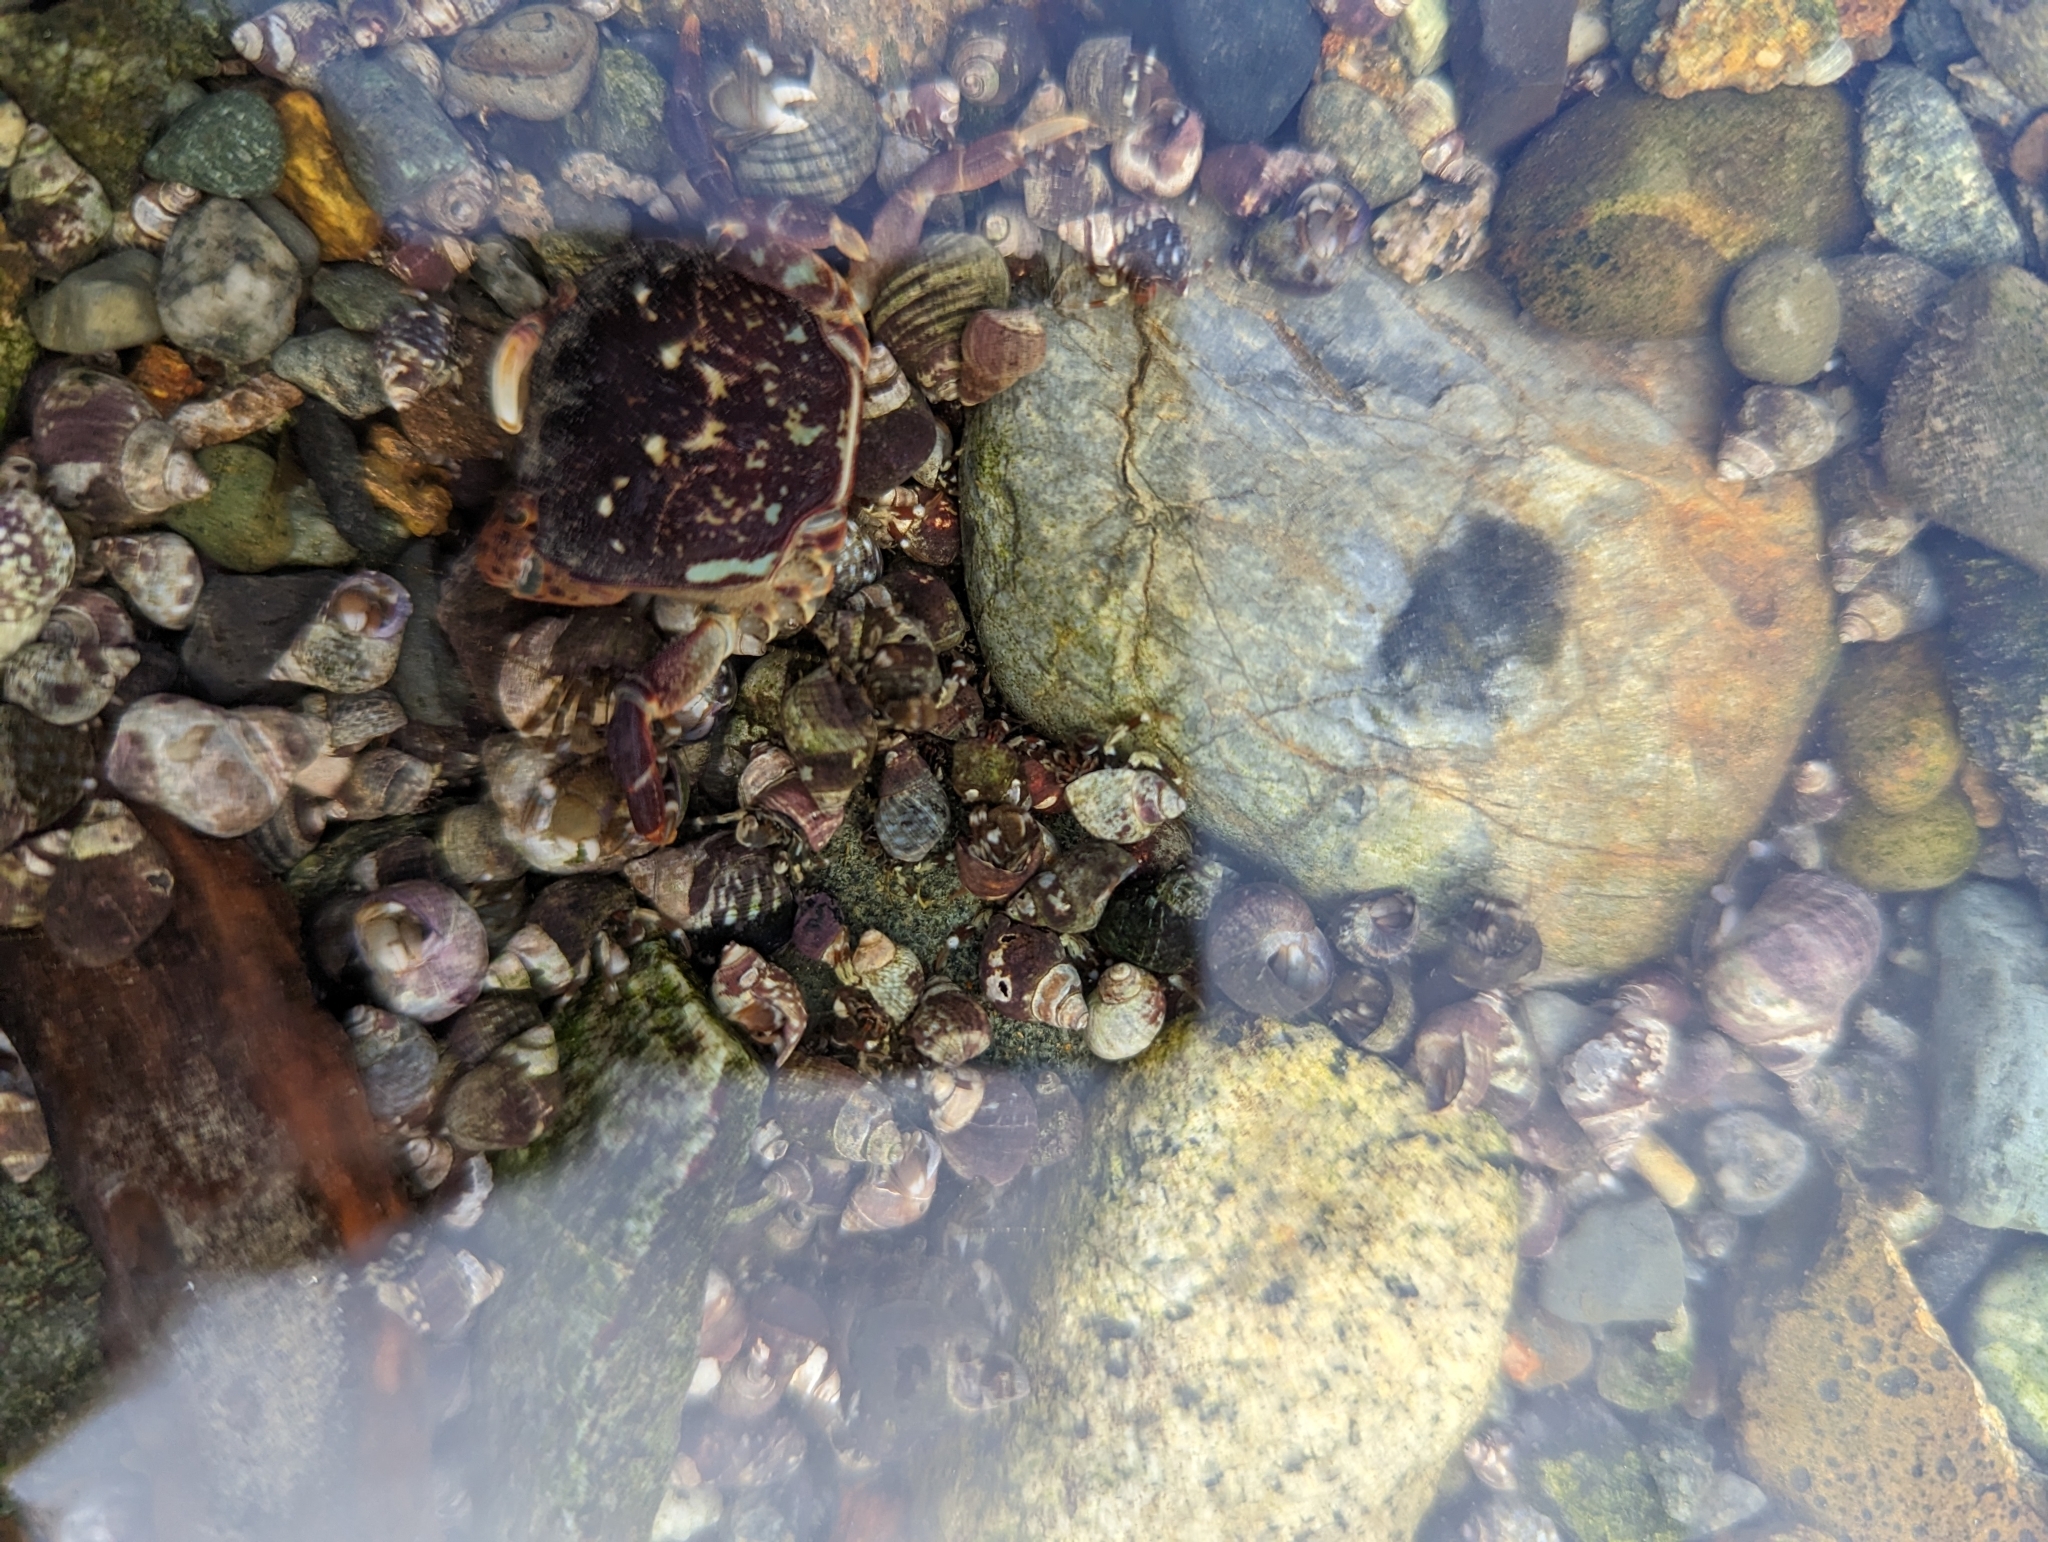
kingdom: Animalia
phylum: Arthropoda
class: Malacostraca
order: Decapoda
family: Varunidae
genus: Hemigrapsus
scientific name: Hemigrapsus nudus
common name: Purple shore crab
